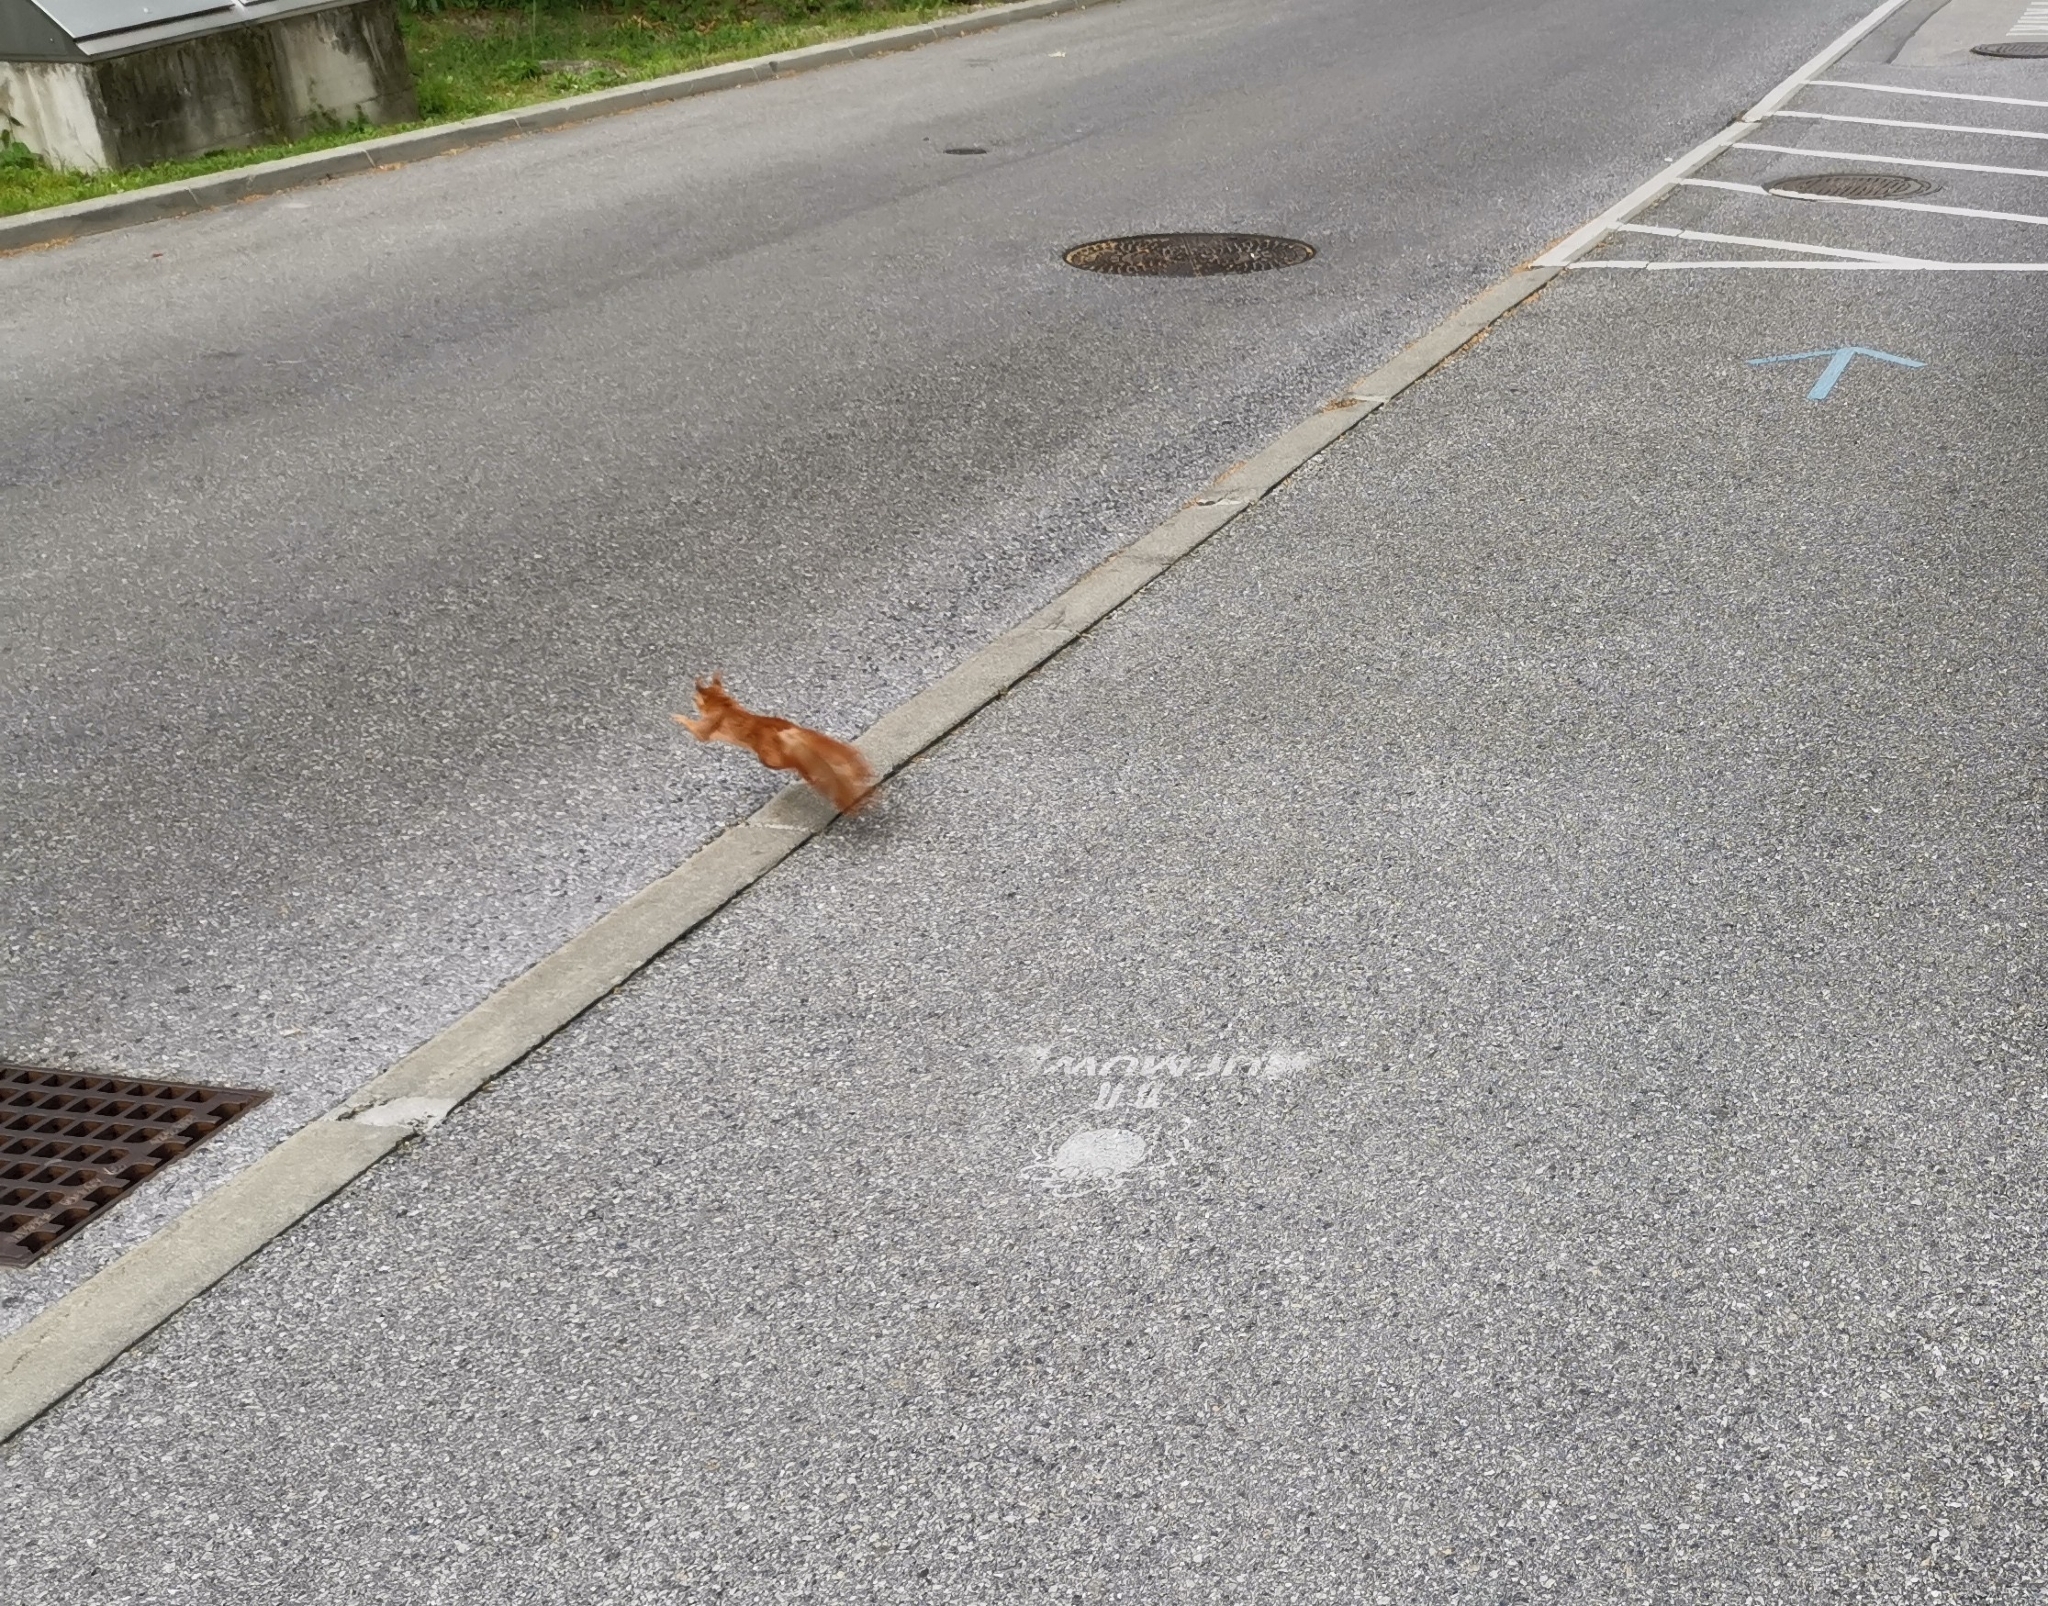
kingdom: Animalia
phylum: Chordata
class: Mammalia
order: Rodentia
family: Sciuridae
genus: Sciurus
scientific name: Sciurus vulgaris
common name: Eurasian red squirrel
